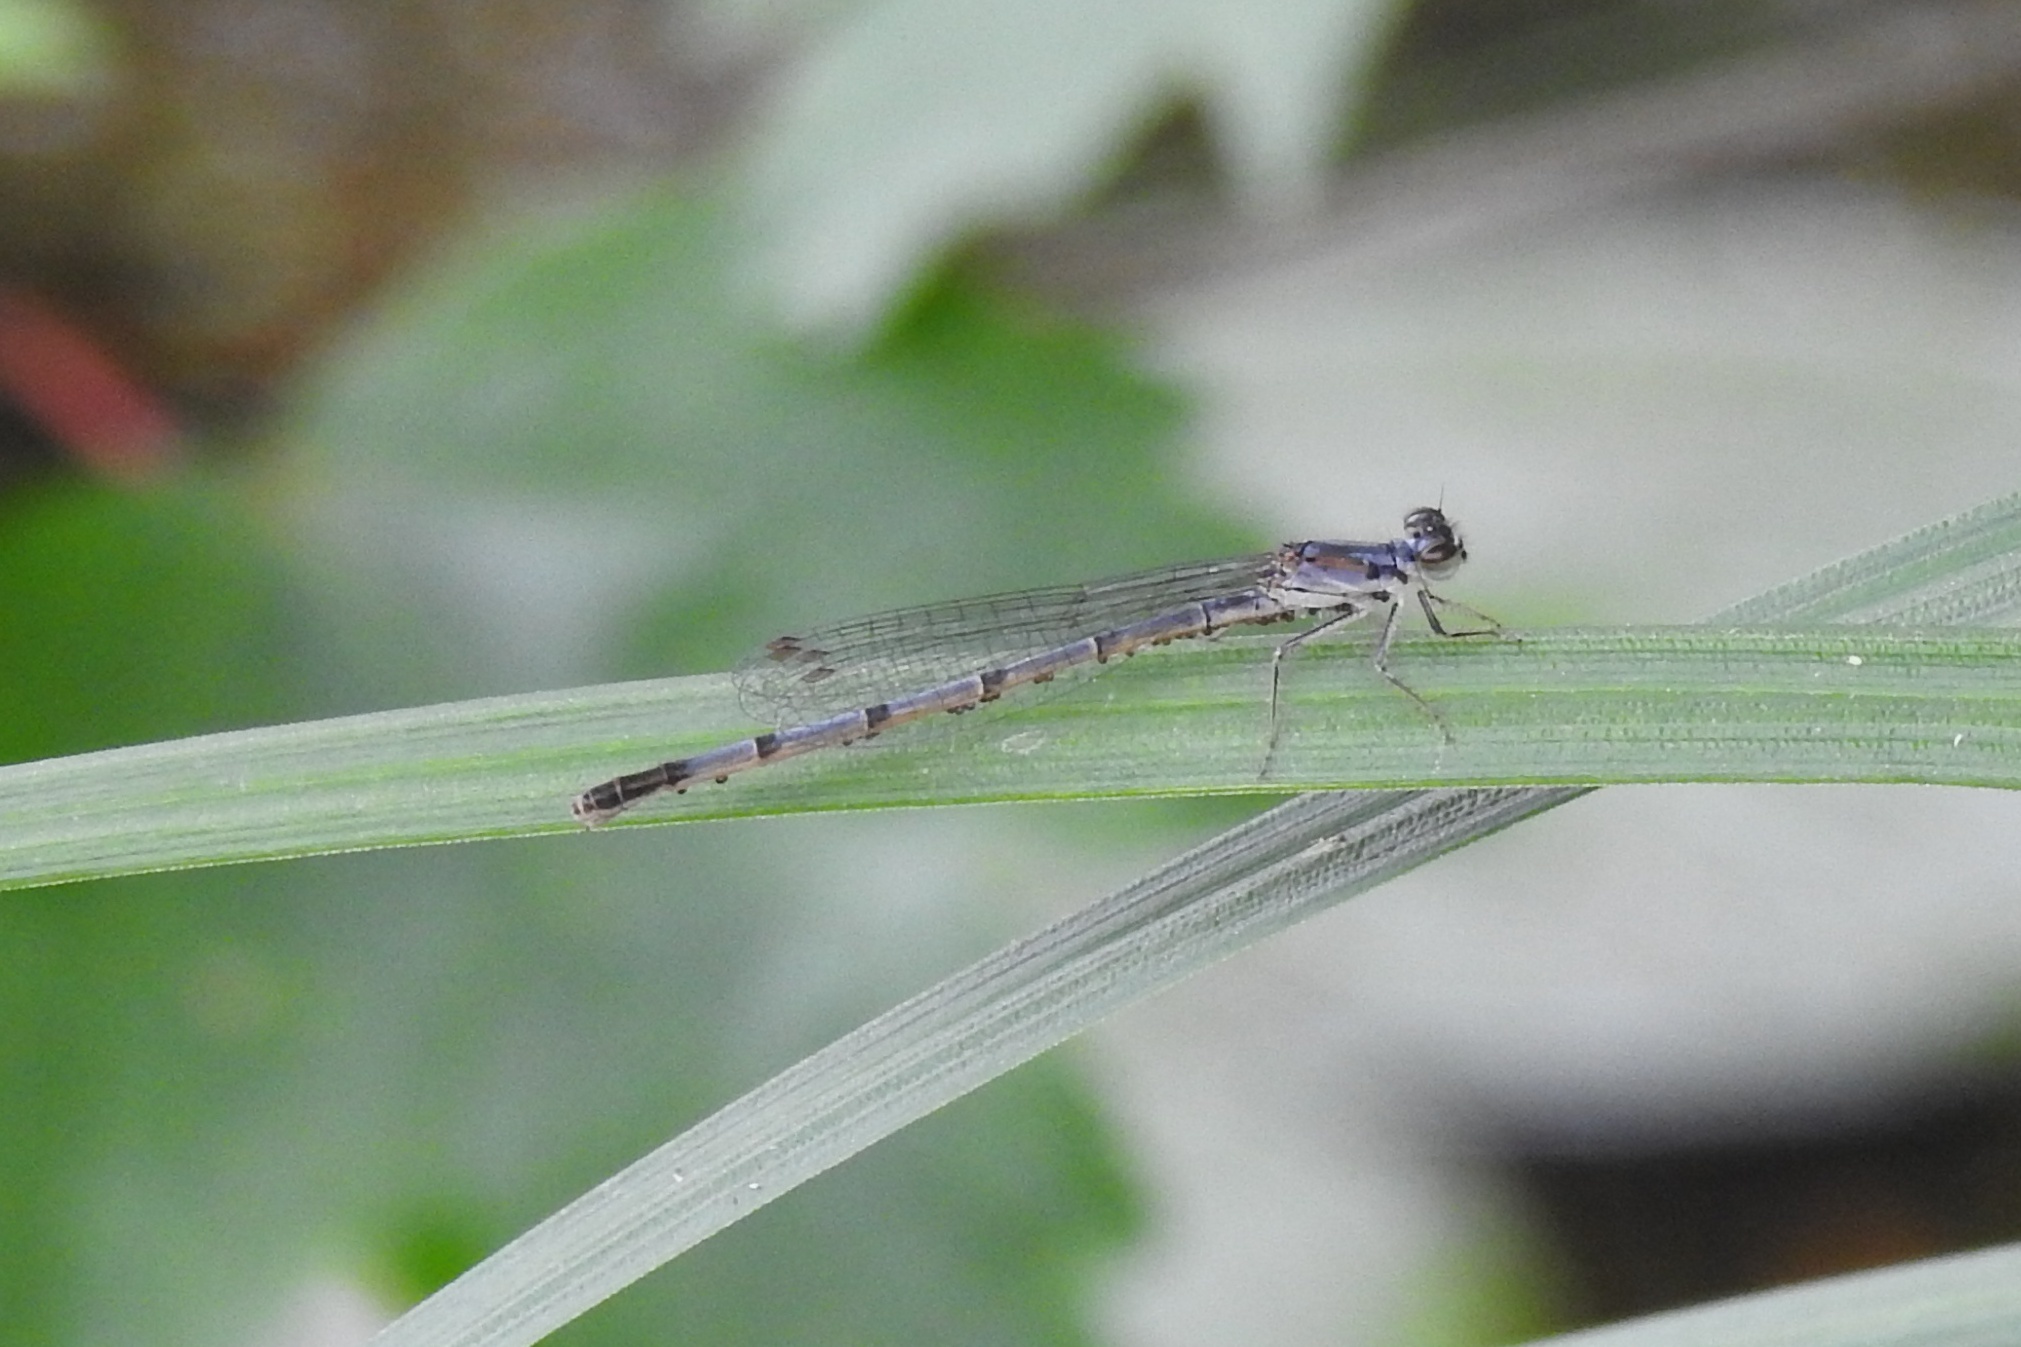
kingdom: Animalia
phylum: Arthropoda
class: Insecta
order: Odonata
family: Coenagrionidae
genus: Ischnura
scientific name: Ischnura posita
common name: Fragile forktail
